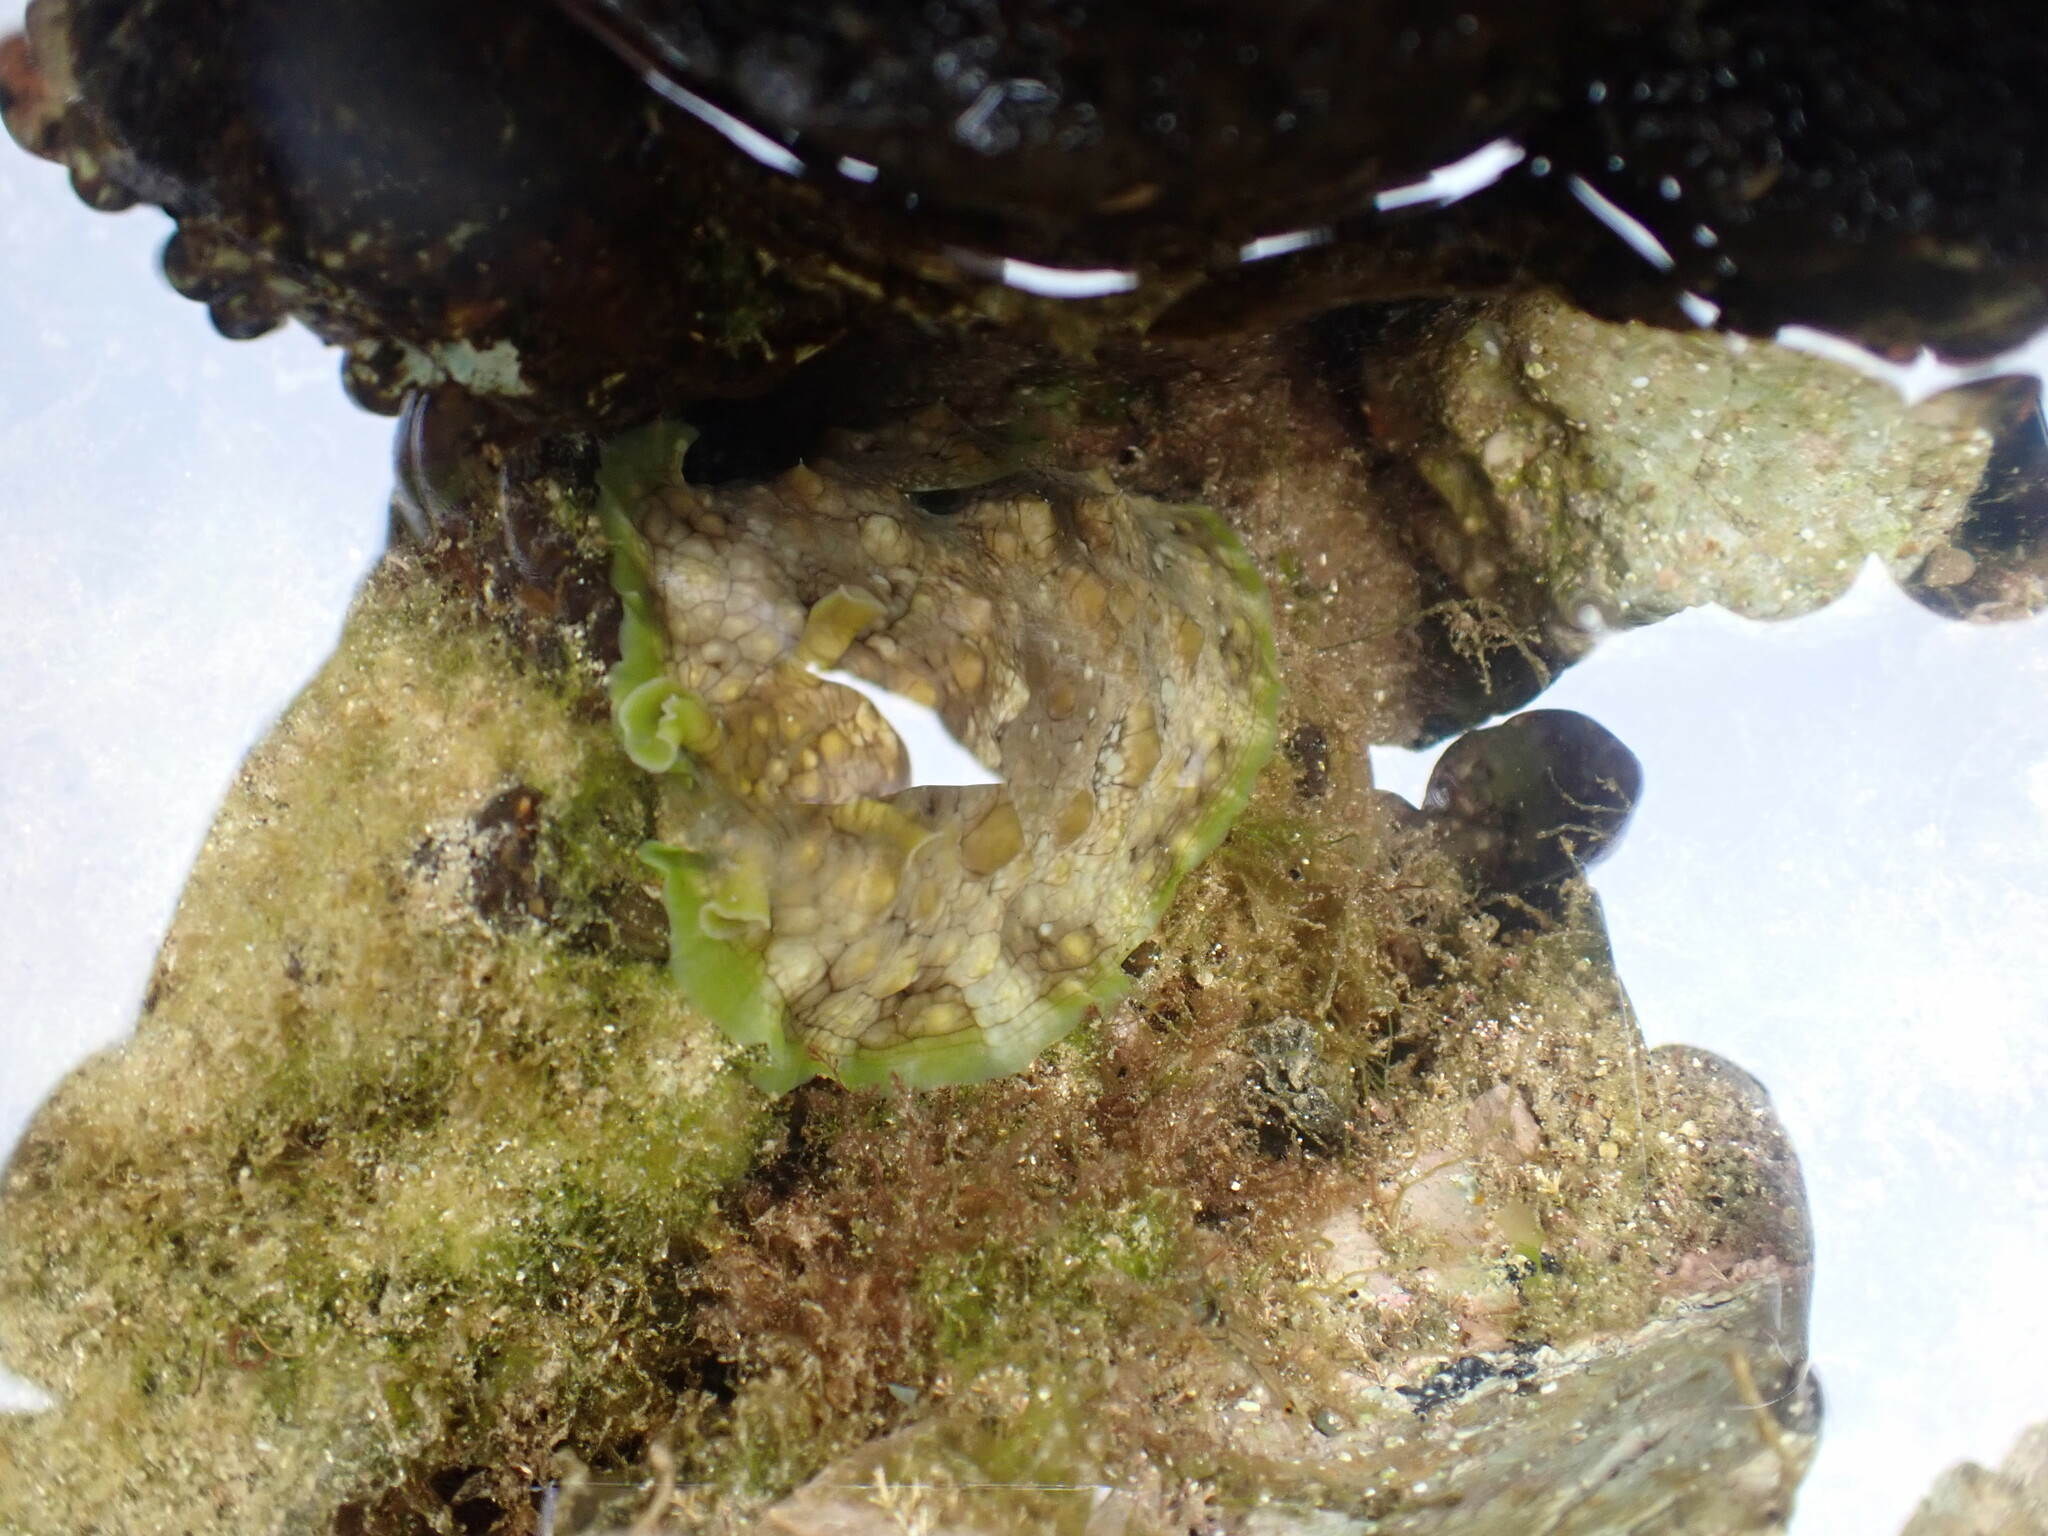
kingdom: Animalia
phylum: Mollusca
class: Gastropoda
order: Aplysiida
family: Aplysiidae
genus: Dolabrifera
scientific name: Dolabrifera brazieri
